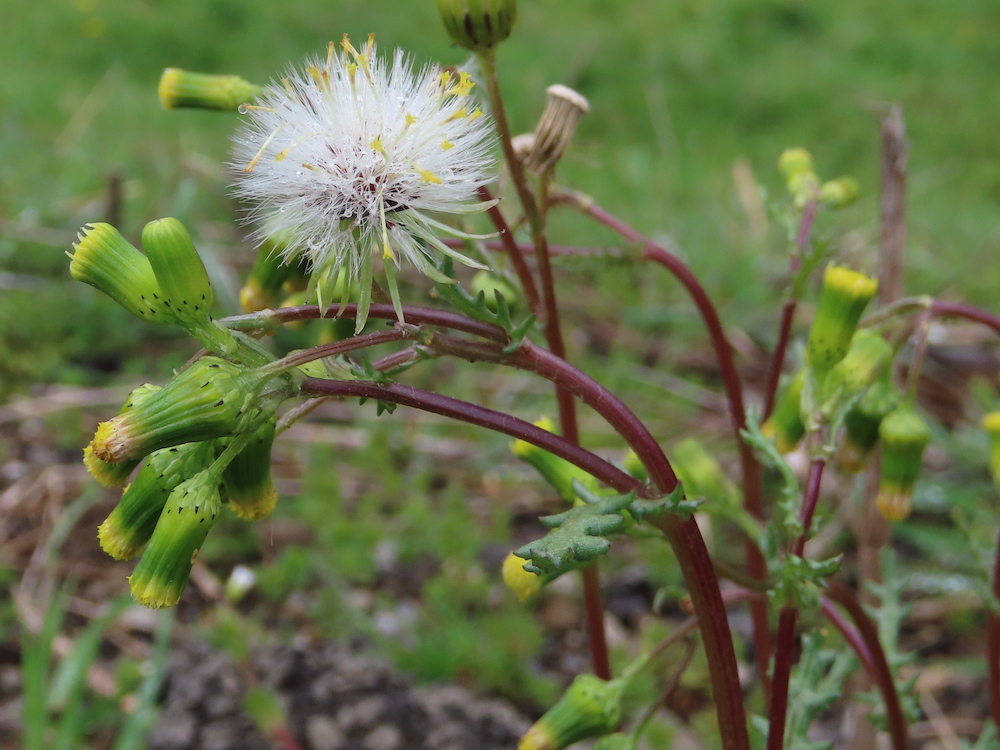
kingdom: Plantae
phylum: Tracheophyta
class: Magnoliopsida
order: Asterales
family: Asteraceae
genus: Senecio
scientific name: Senecio vulgaris
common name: Old-man-in-the-spring
